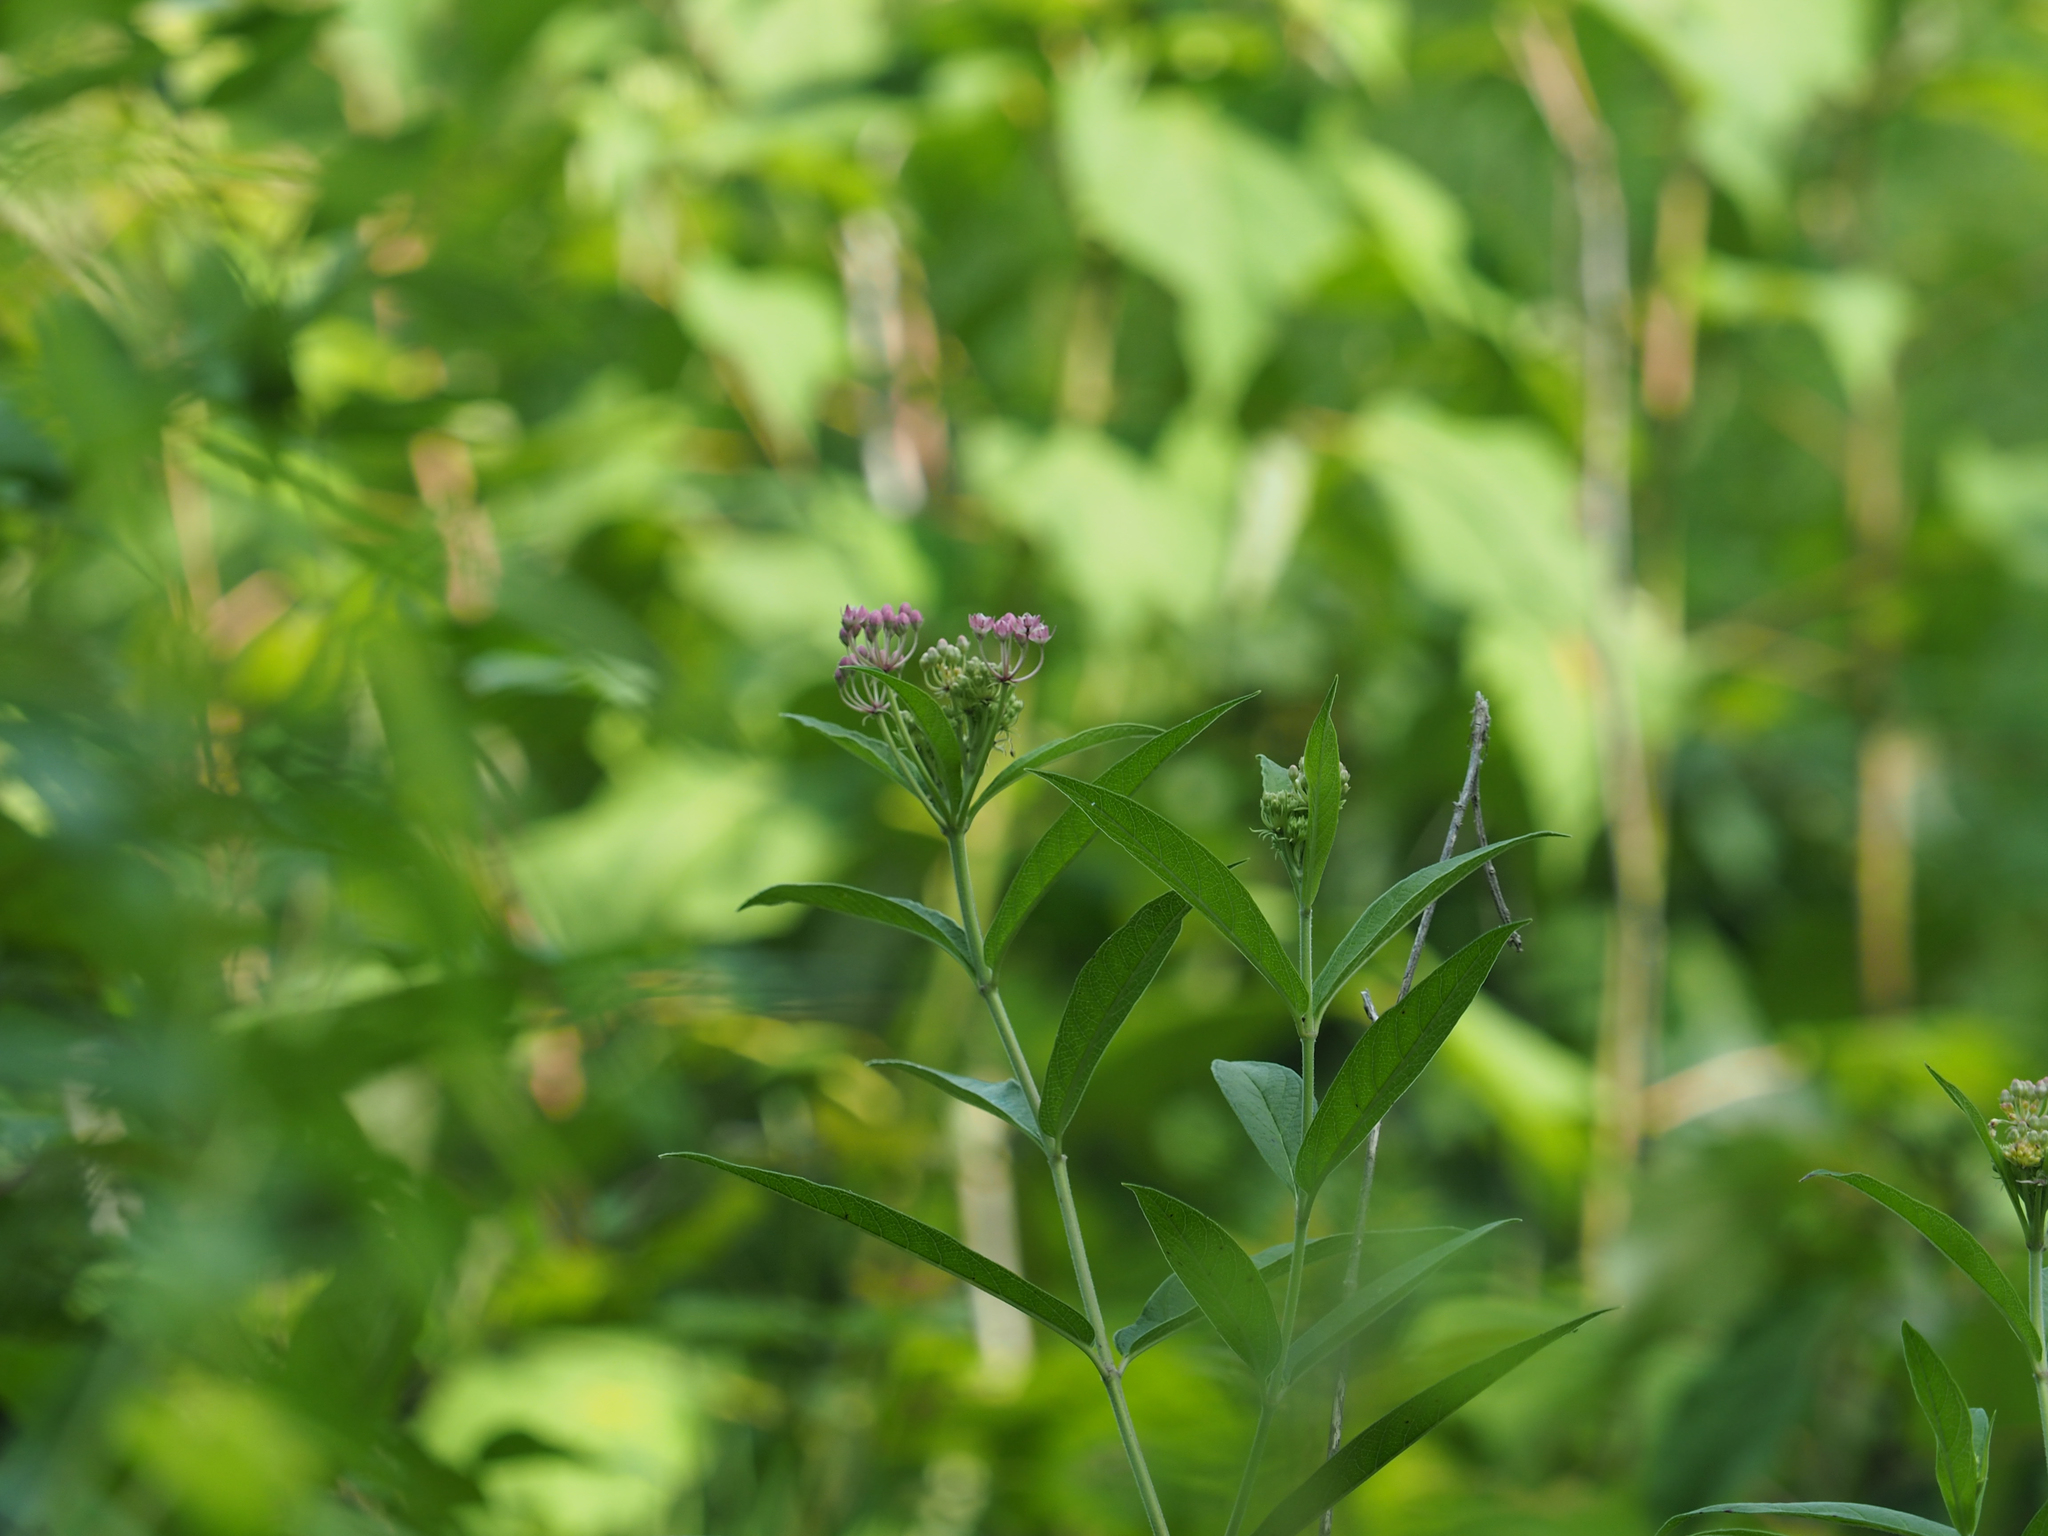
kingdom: Plantae
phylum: Tracheophyta
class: Magnoliopsida
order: Gentianales
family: Apocynaceae
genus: Asclepias
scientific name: Asclepias incarnata
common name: Swamp milkweed
